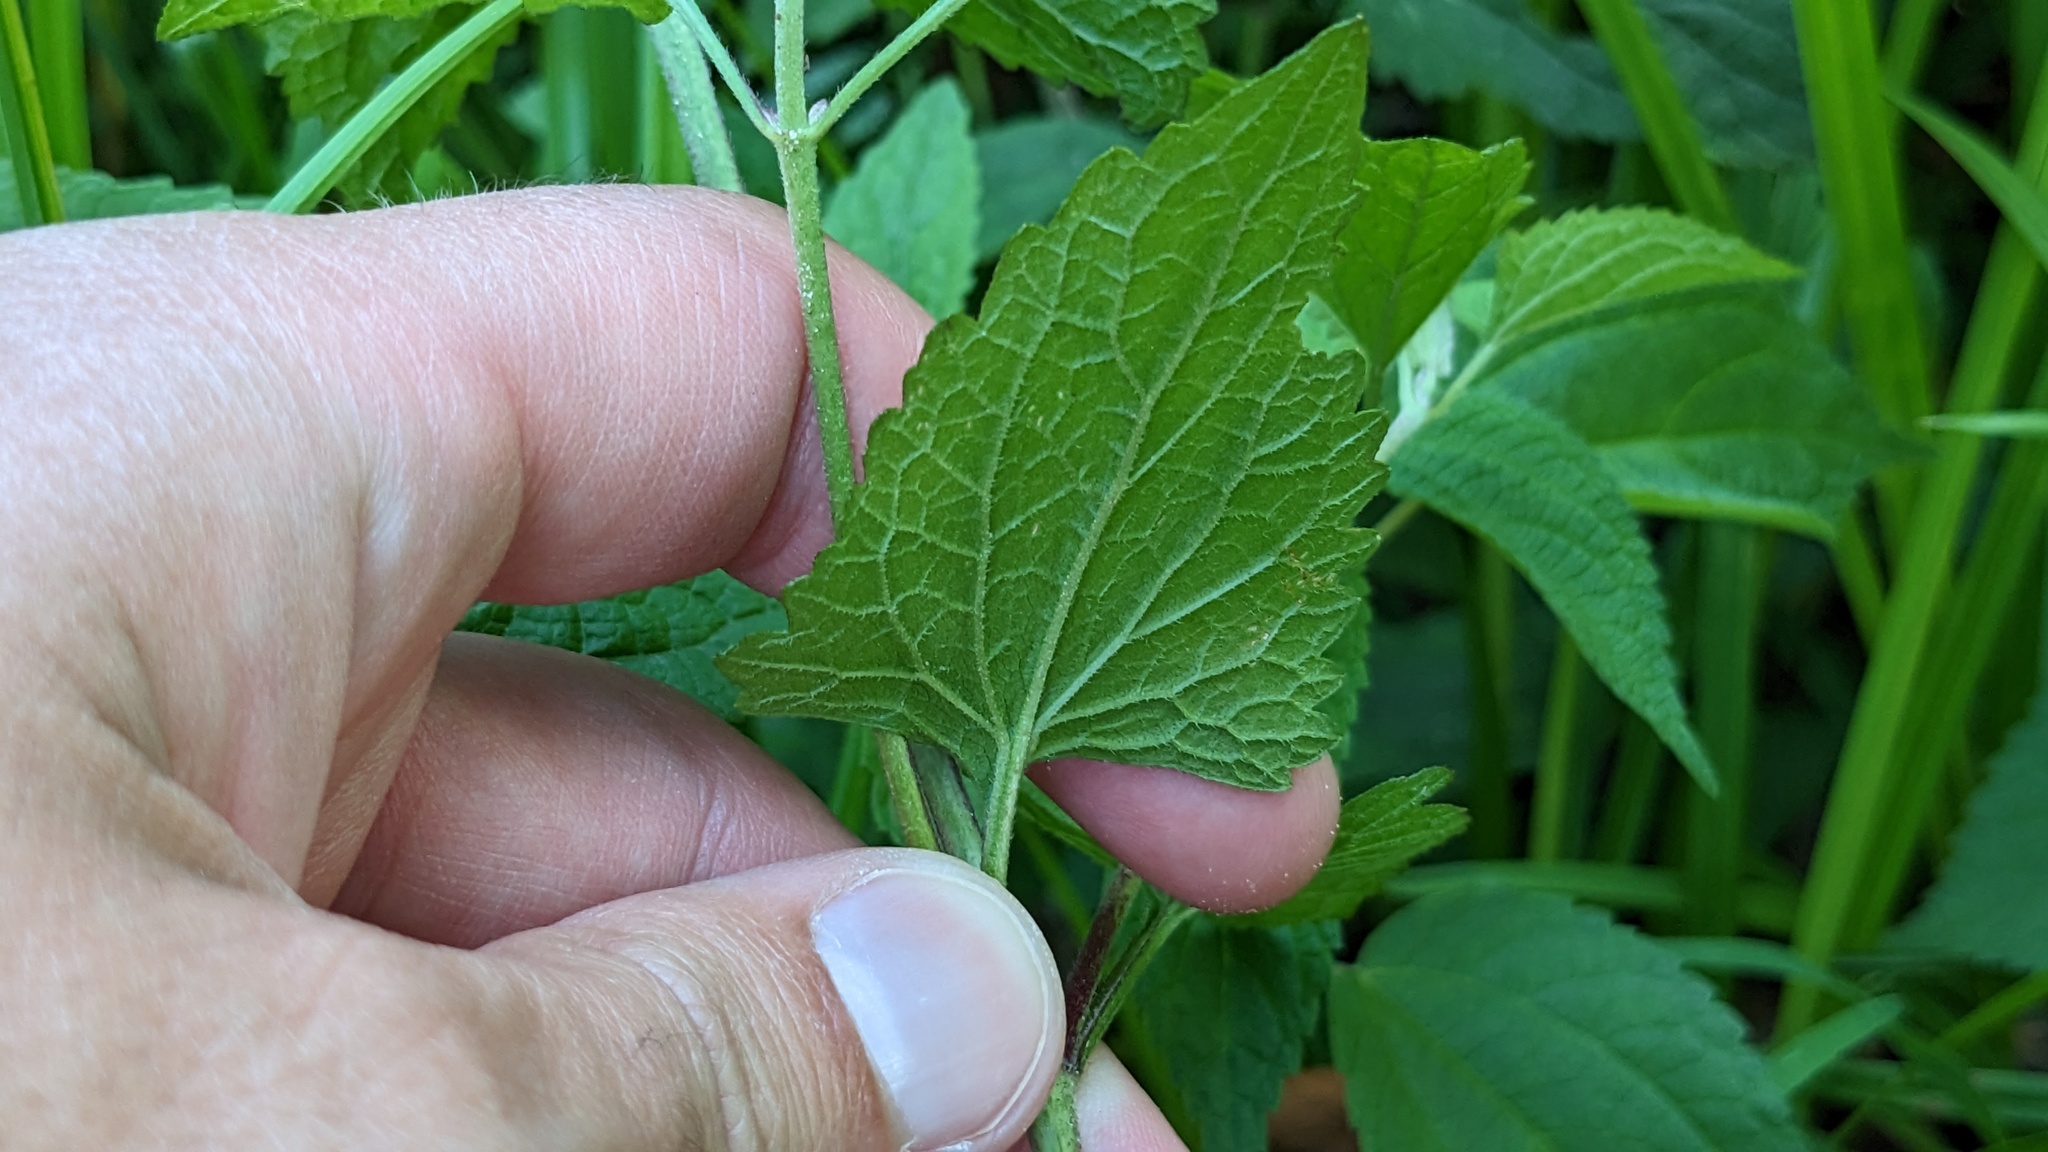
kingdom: Plantae
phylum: Tracheophyta
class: Magnoliopsida
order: Asterales
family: Asteraceae
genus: Conoclinium
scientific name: Conoclinium coelestinum
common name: Blue mistflower
